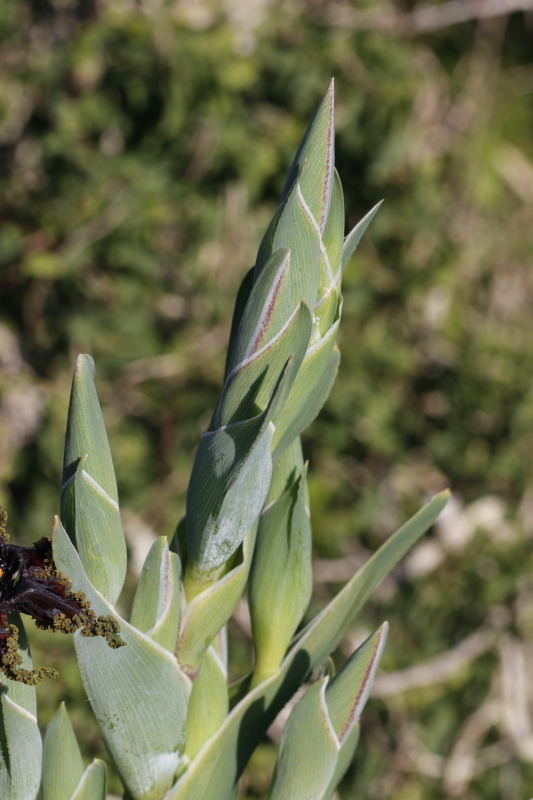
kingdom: Plantae
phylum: Tracheophyta
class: Liliopsida
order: Asparagales
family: Iridaceae
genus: Ferraria
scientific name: Ferraria crispa
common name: Black-flag
